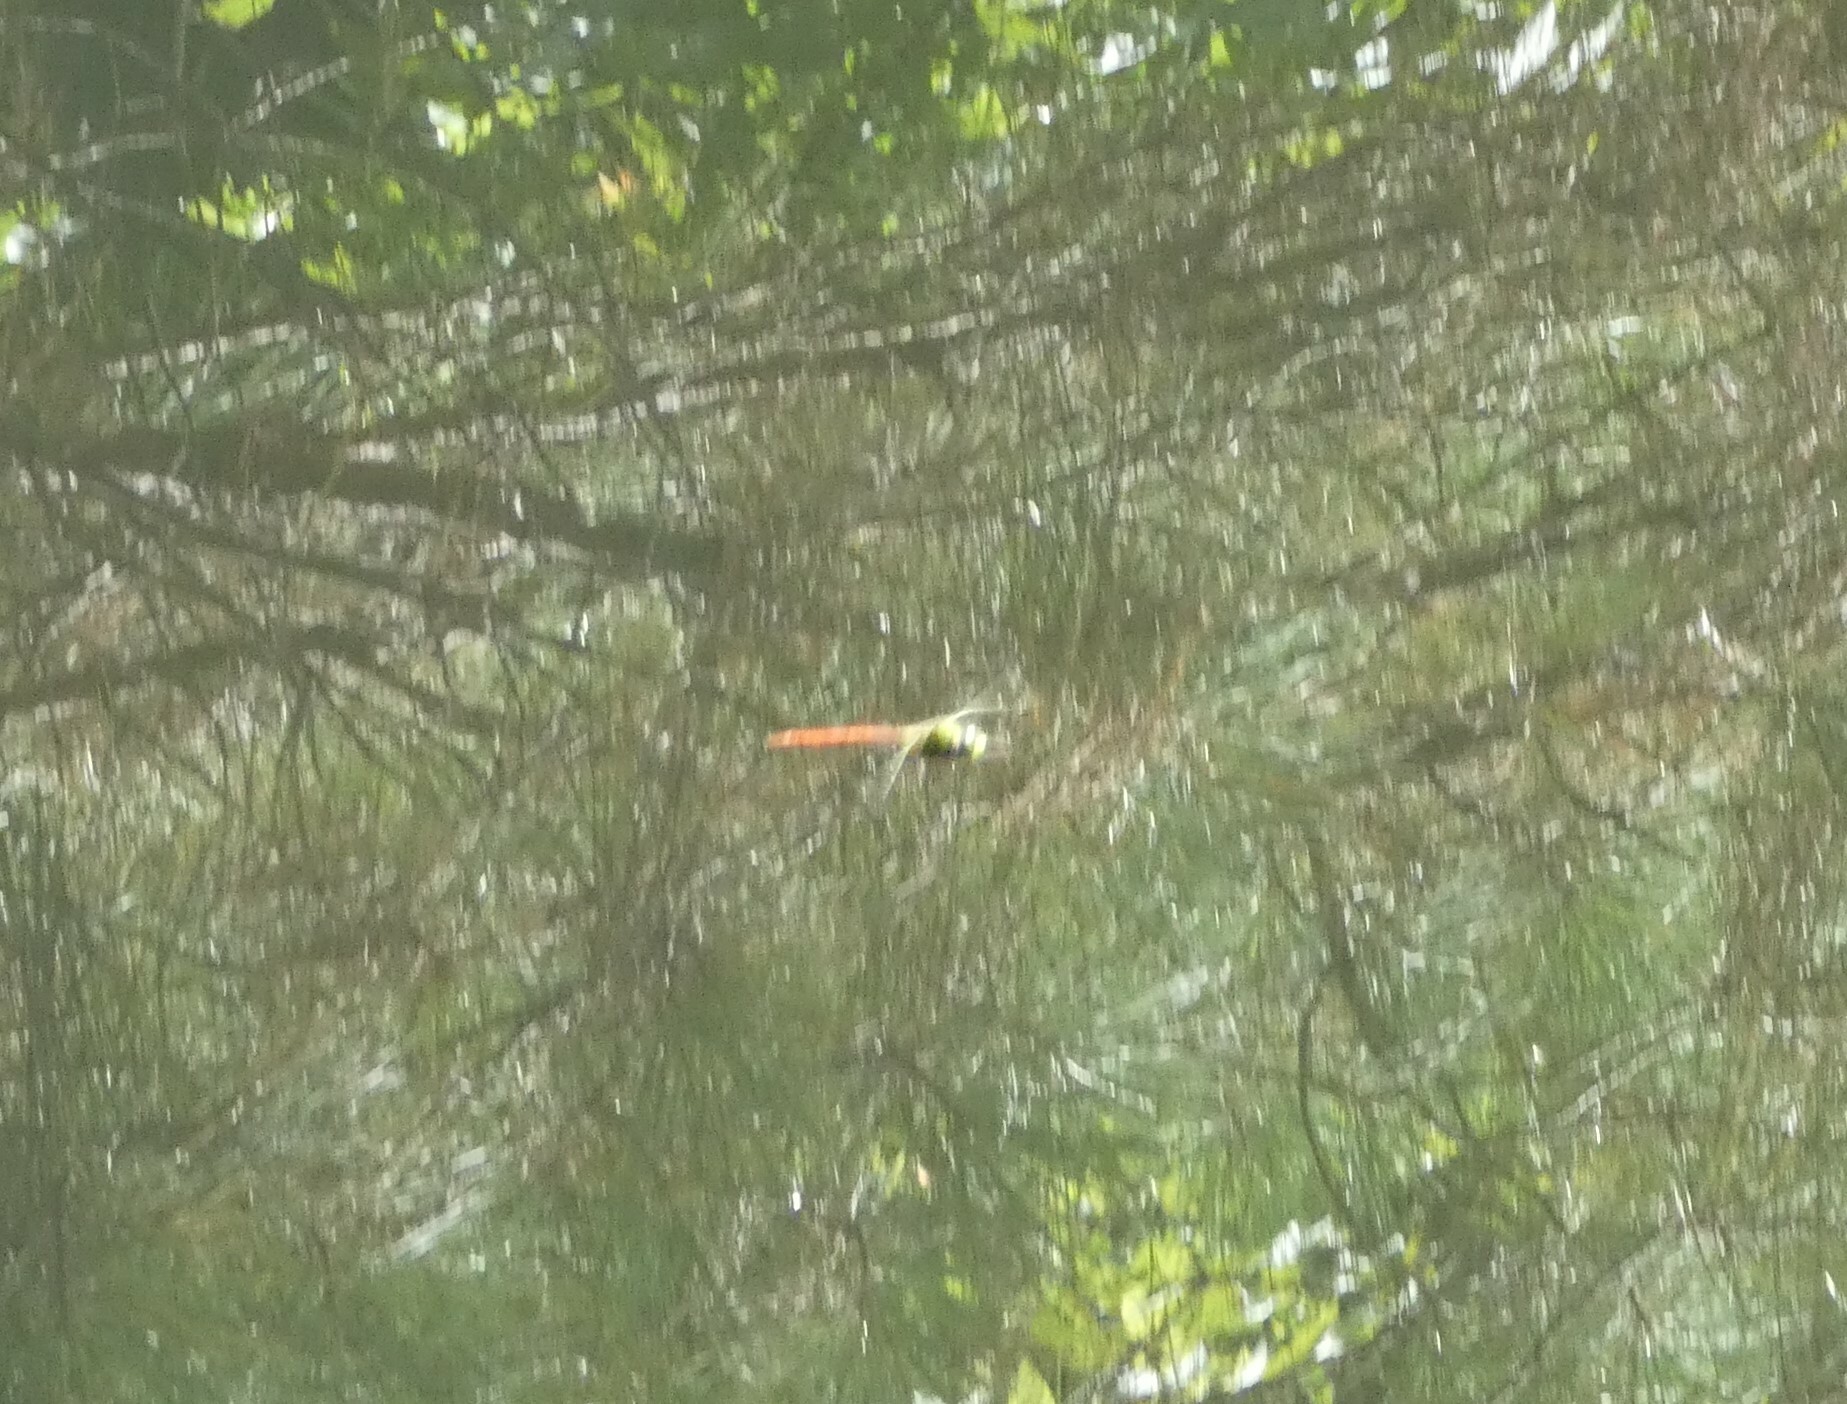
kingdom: Animalia
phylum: Arthropoda
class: Insecta
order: Odonata
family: Aeshnidae
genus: Anax
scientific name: Anax longipes
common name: Comet darner
